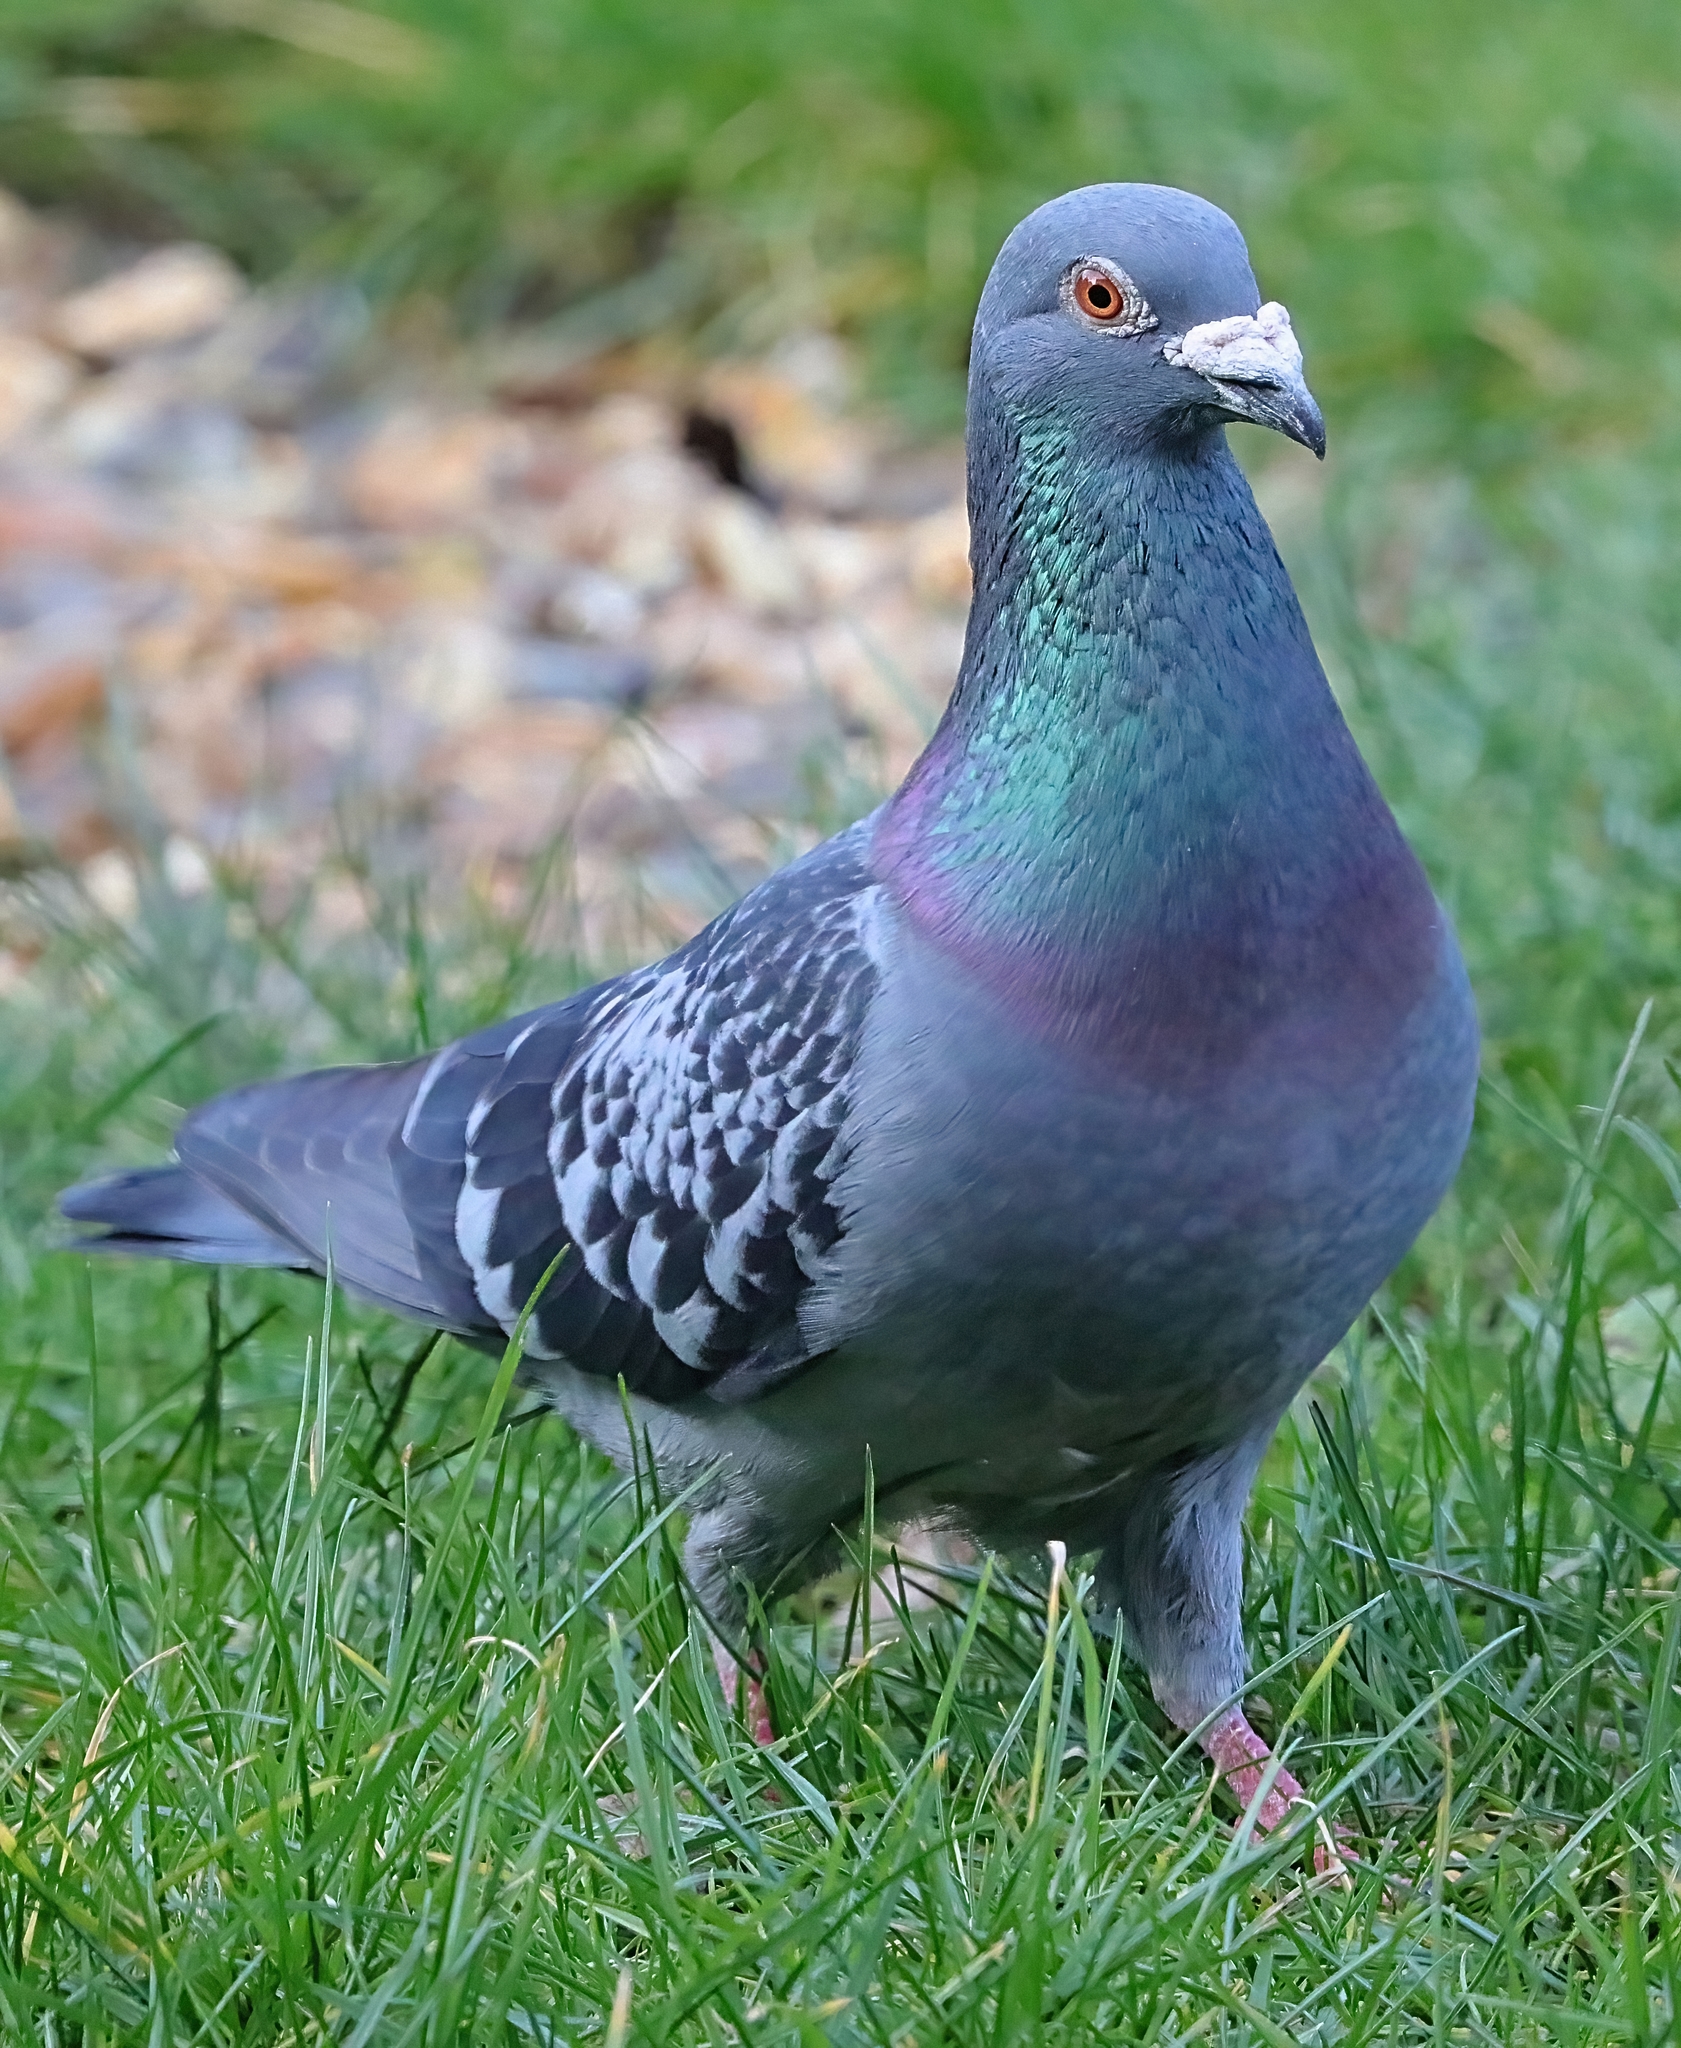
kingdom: Animalia
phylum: Chordata
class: Aves
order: Columbiformes
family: Columbidae
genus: Columba
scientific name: Columba livia
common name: Rock pigeon
